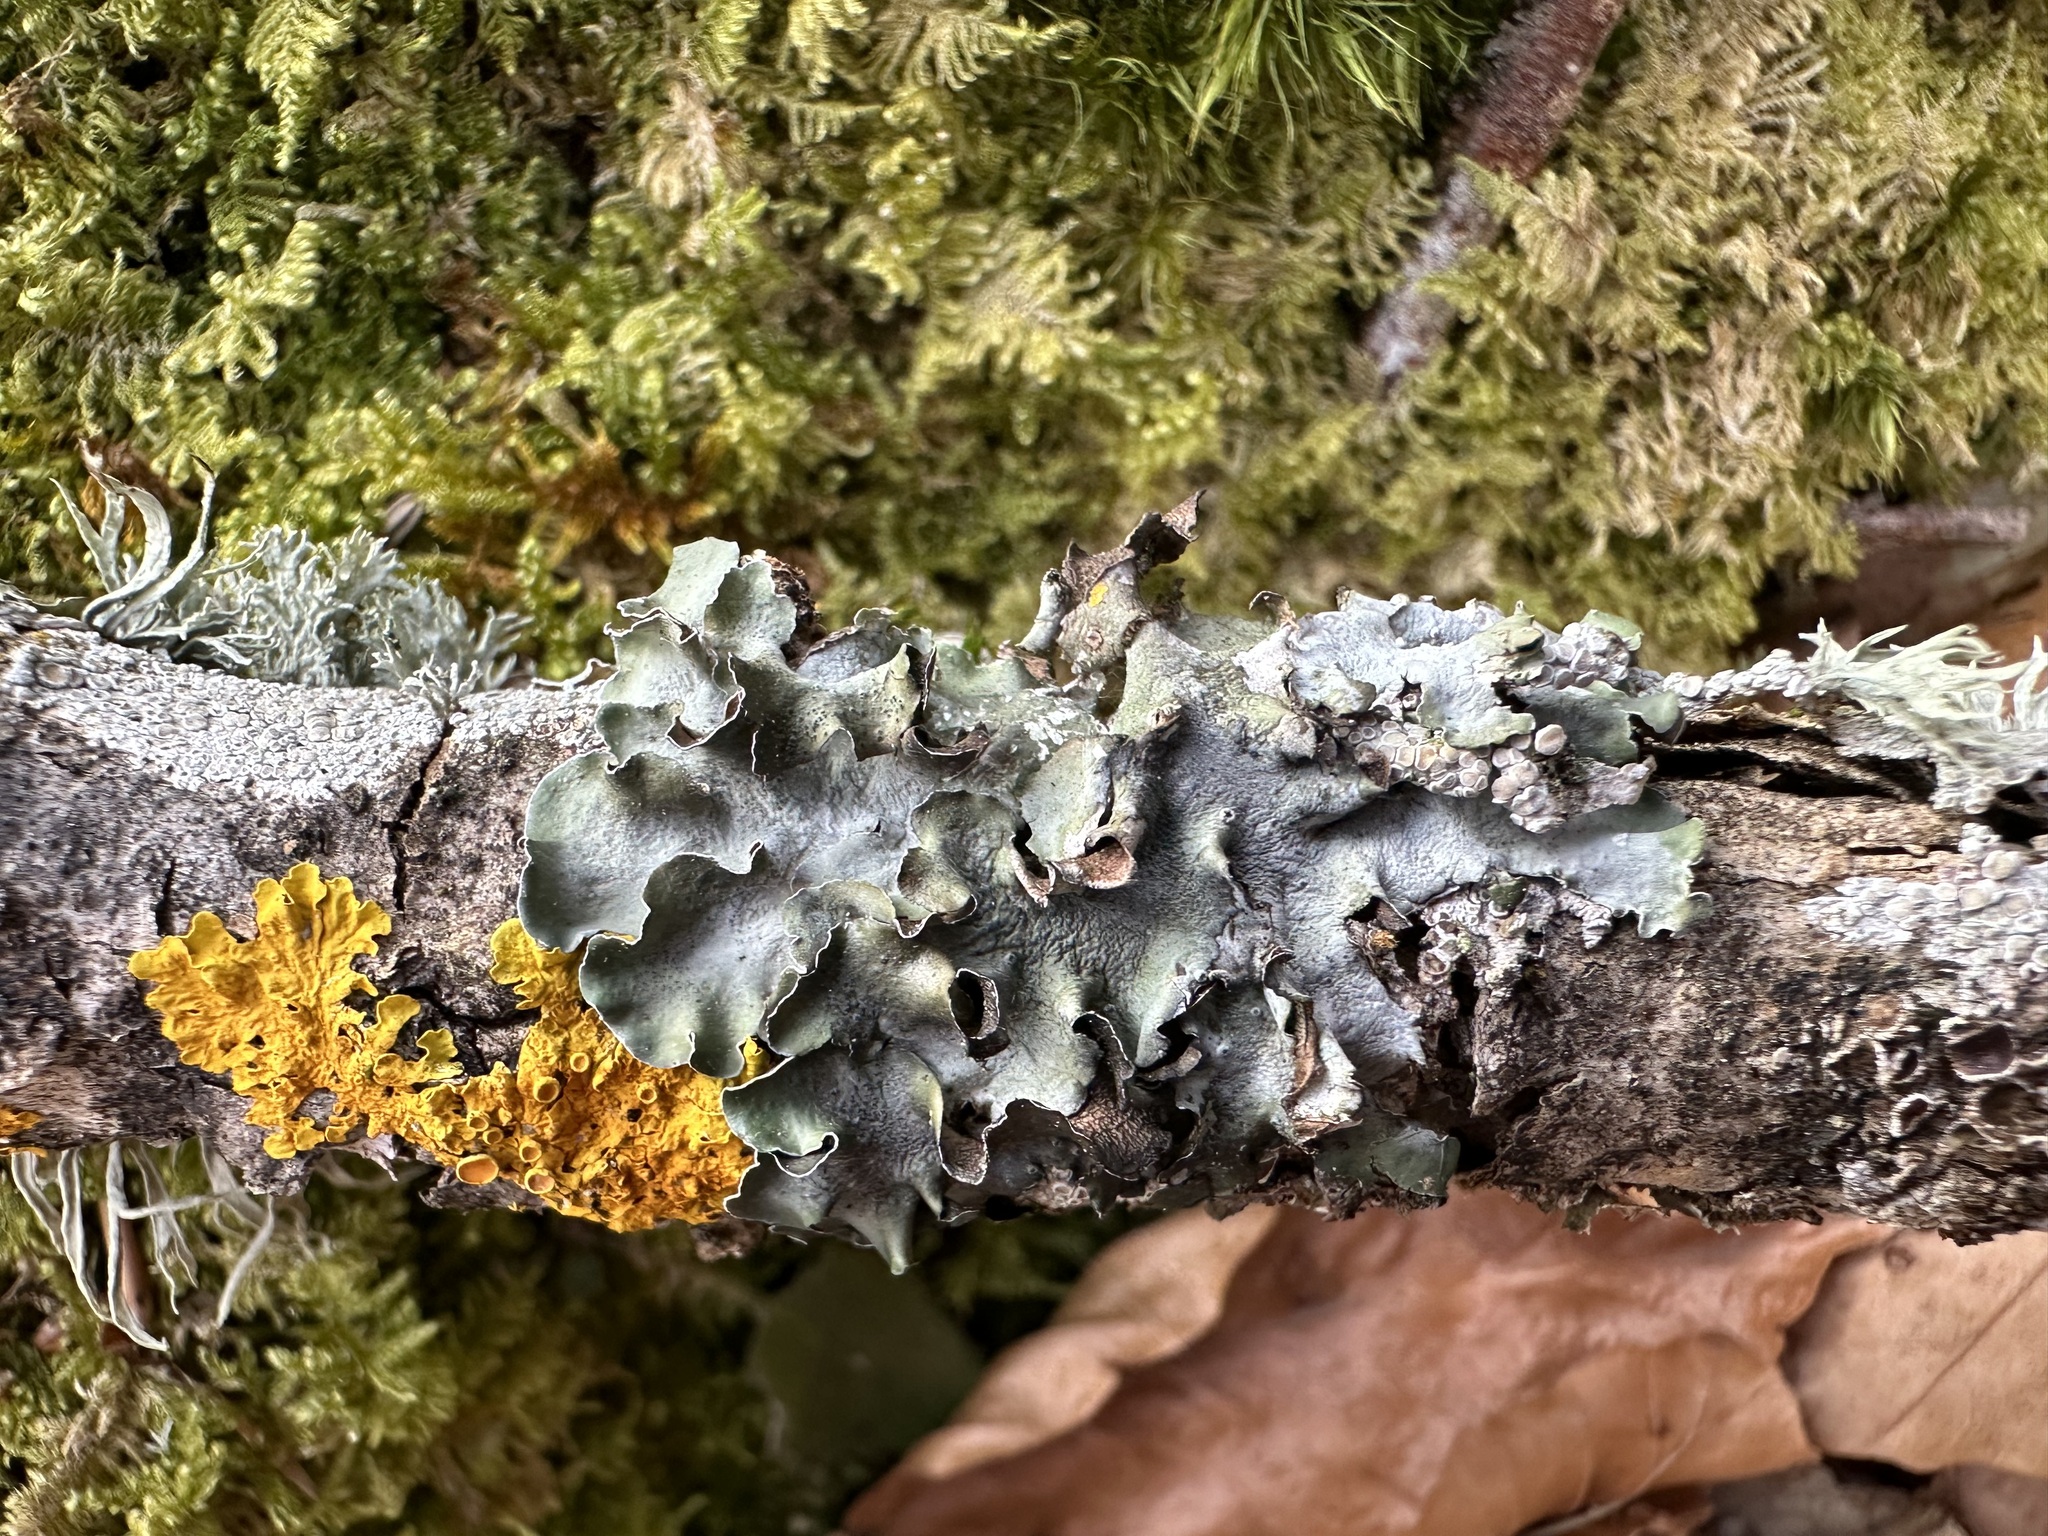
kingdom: Fungi
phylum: Ascomycota
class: Lecanoromycetes
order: Lecanorales
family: Parmeliaceae
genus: Pleurosticta
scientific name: Pleurosticta acetabulum
